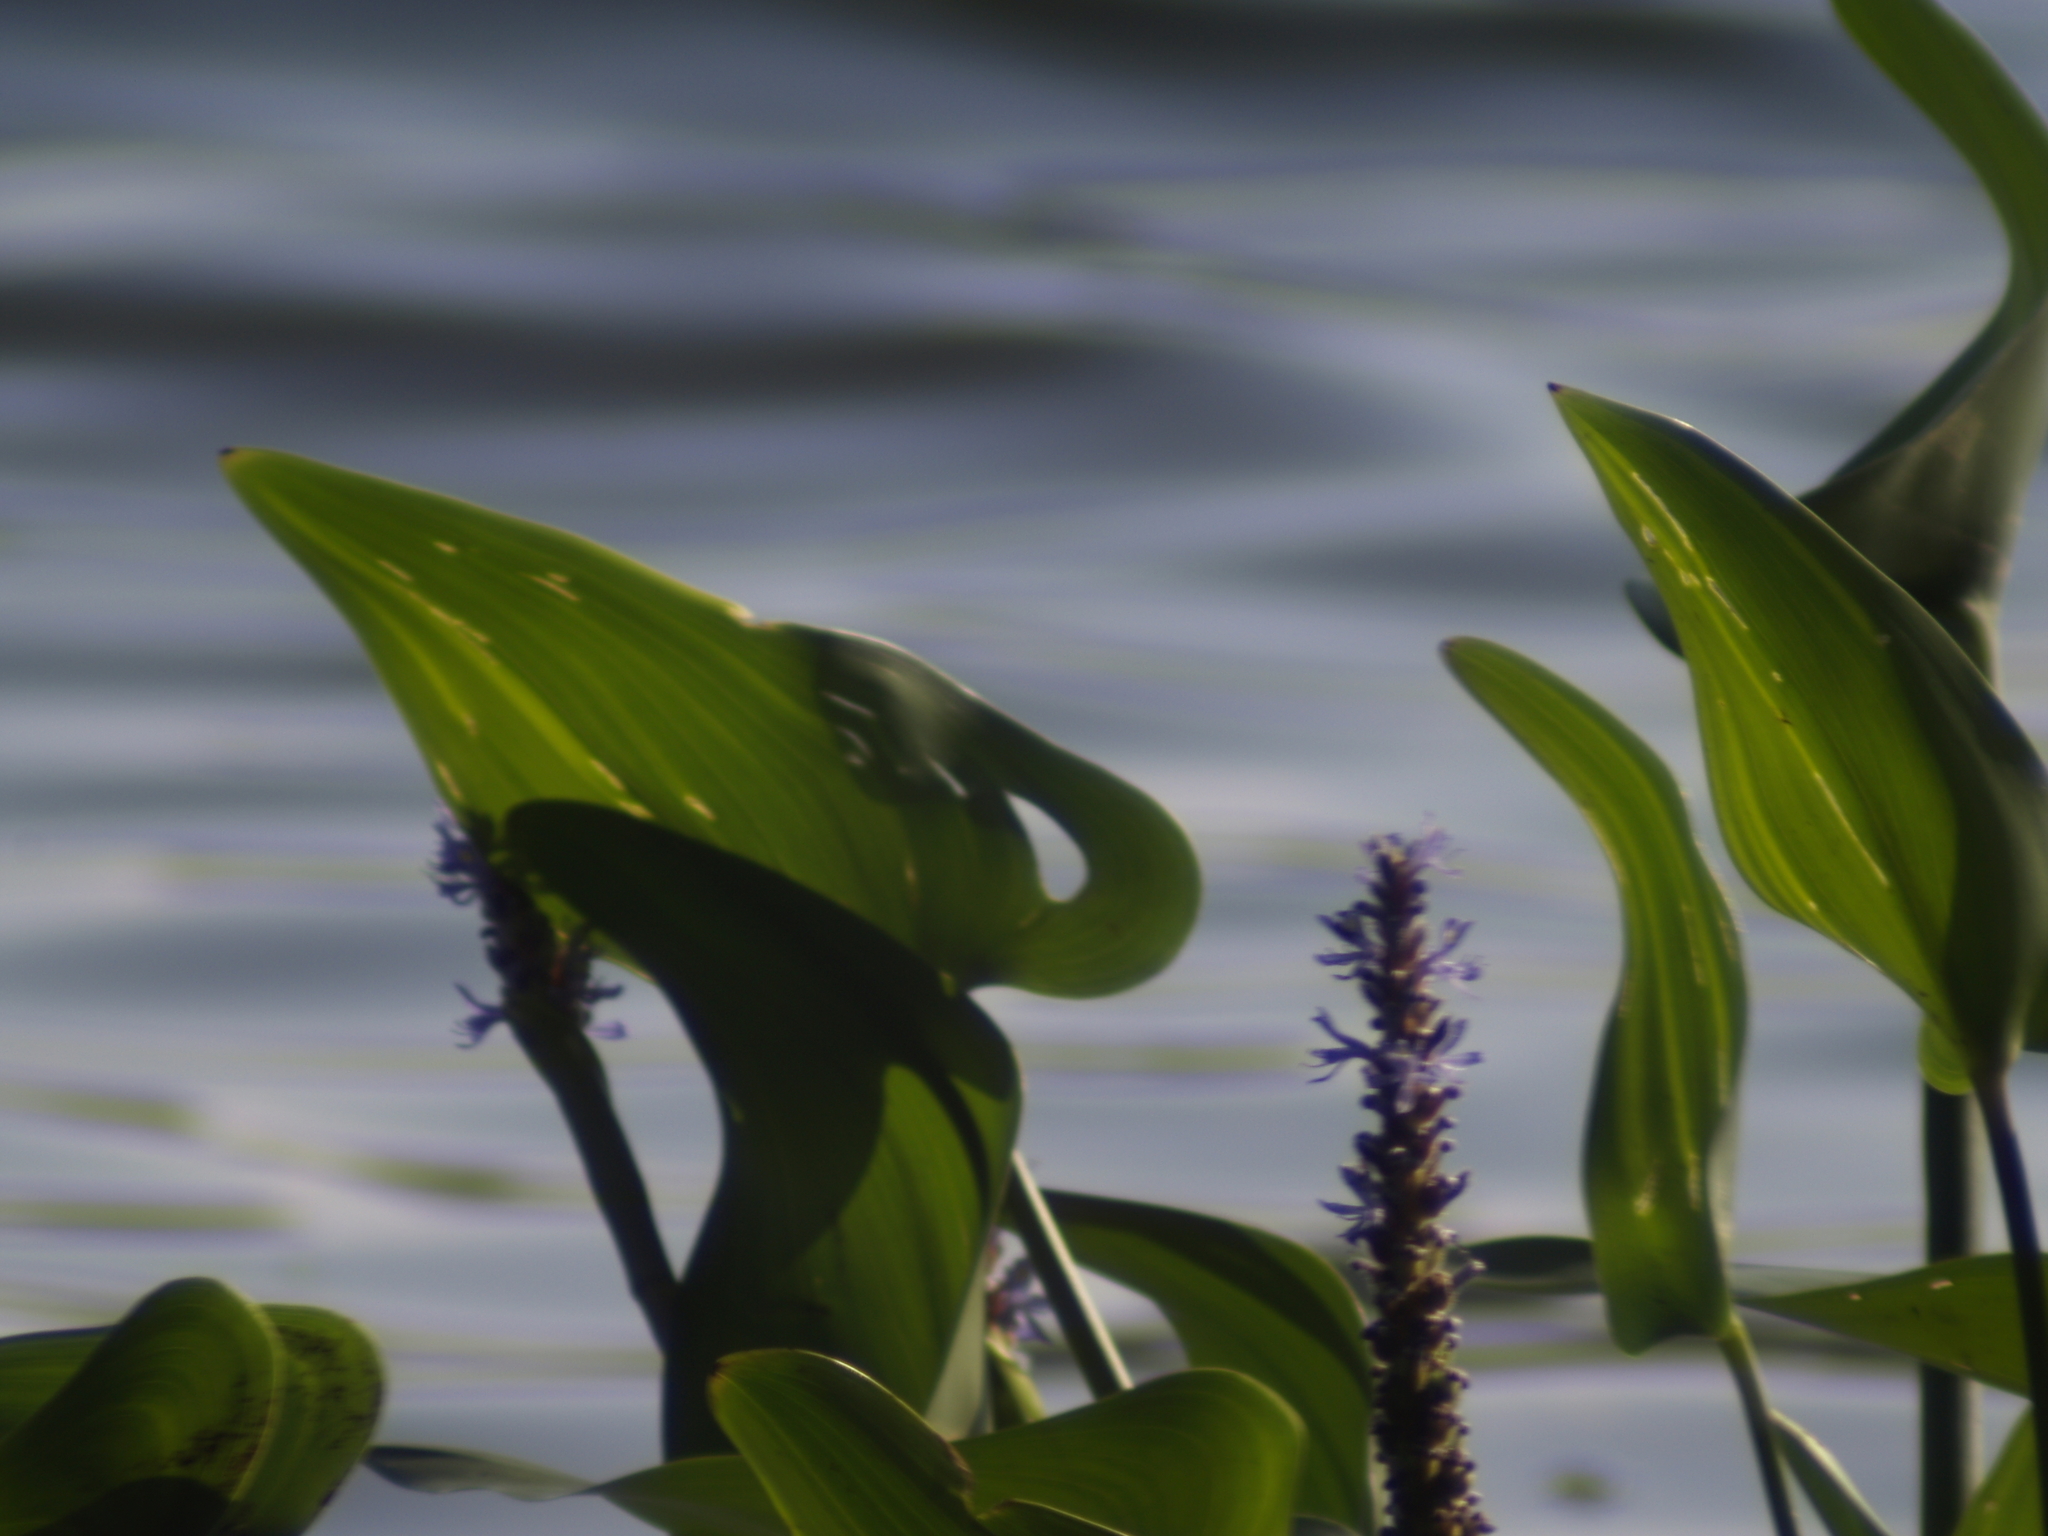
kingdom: Plantae
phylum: Tracheophyta
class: Liliopsida
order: Commelinales
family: Pontederiaceae
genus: Pontederia
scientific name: Pontederia cordata
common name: Pickerelweed
